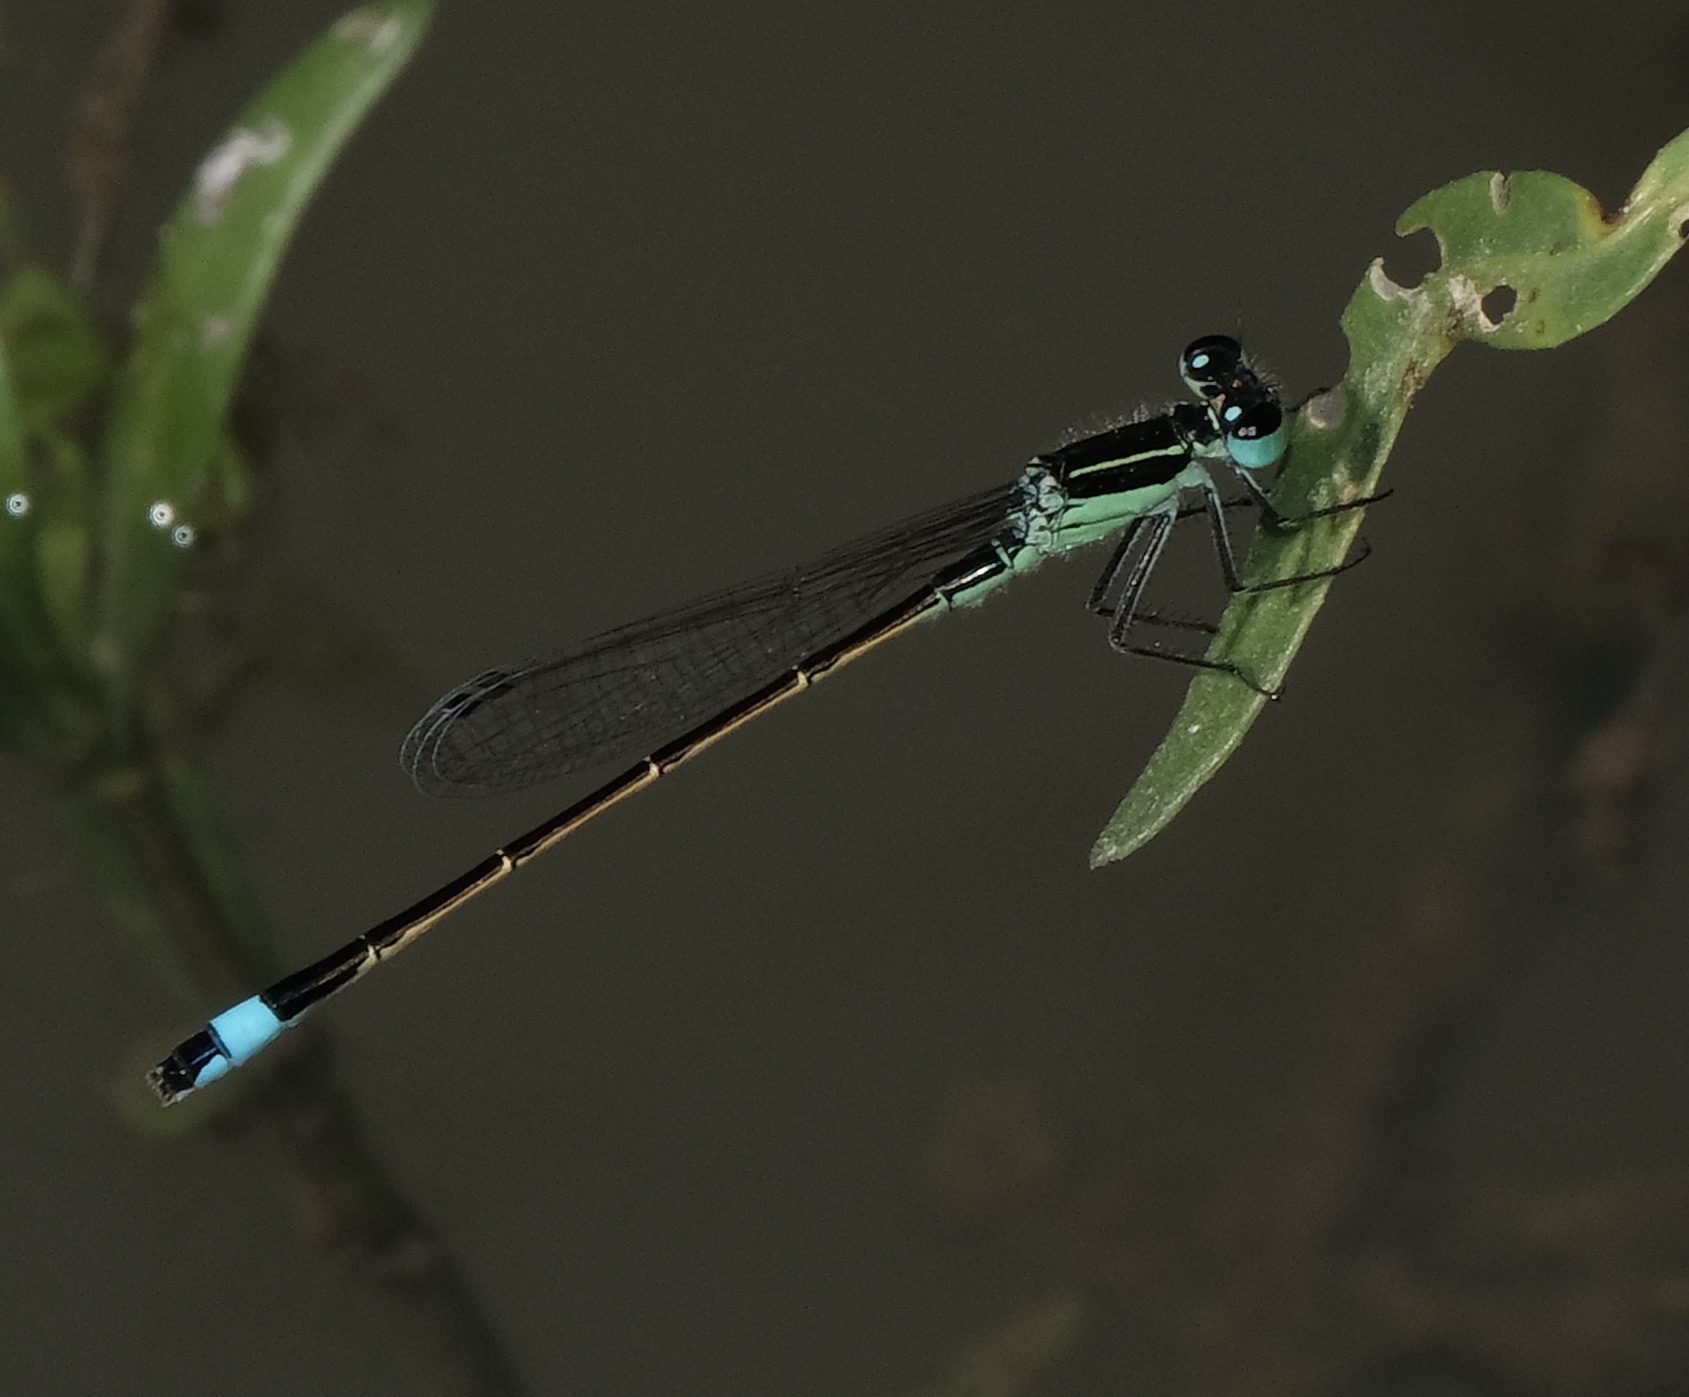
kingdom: Animalia
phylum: Arthropoda
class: Insecta
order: Odonata
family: Coenagrionidae
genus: Ischnura
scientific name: Ischnura ramburii
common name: Rambur's forktail
